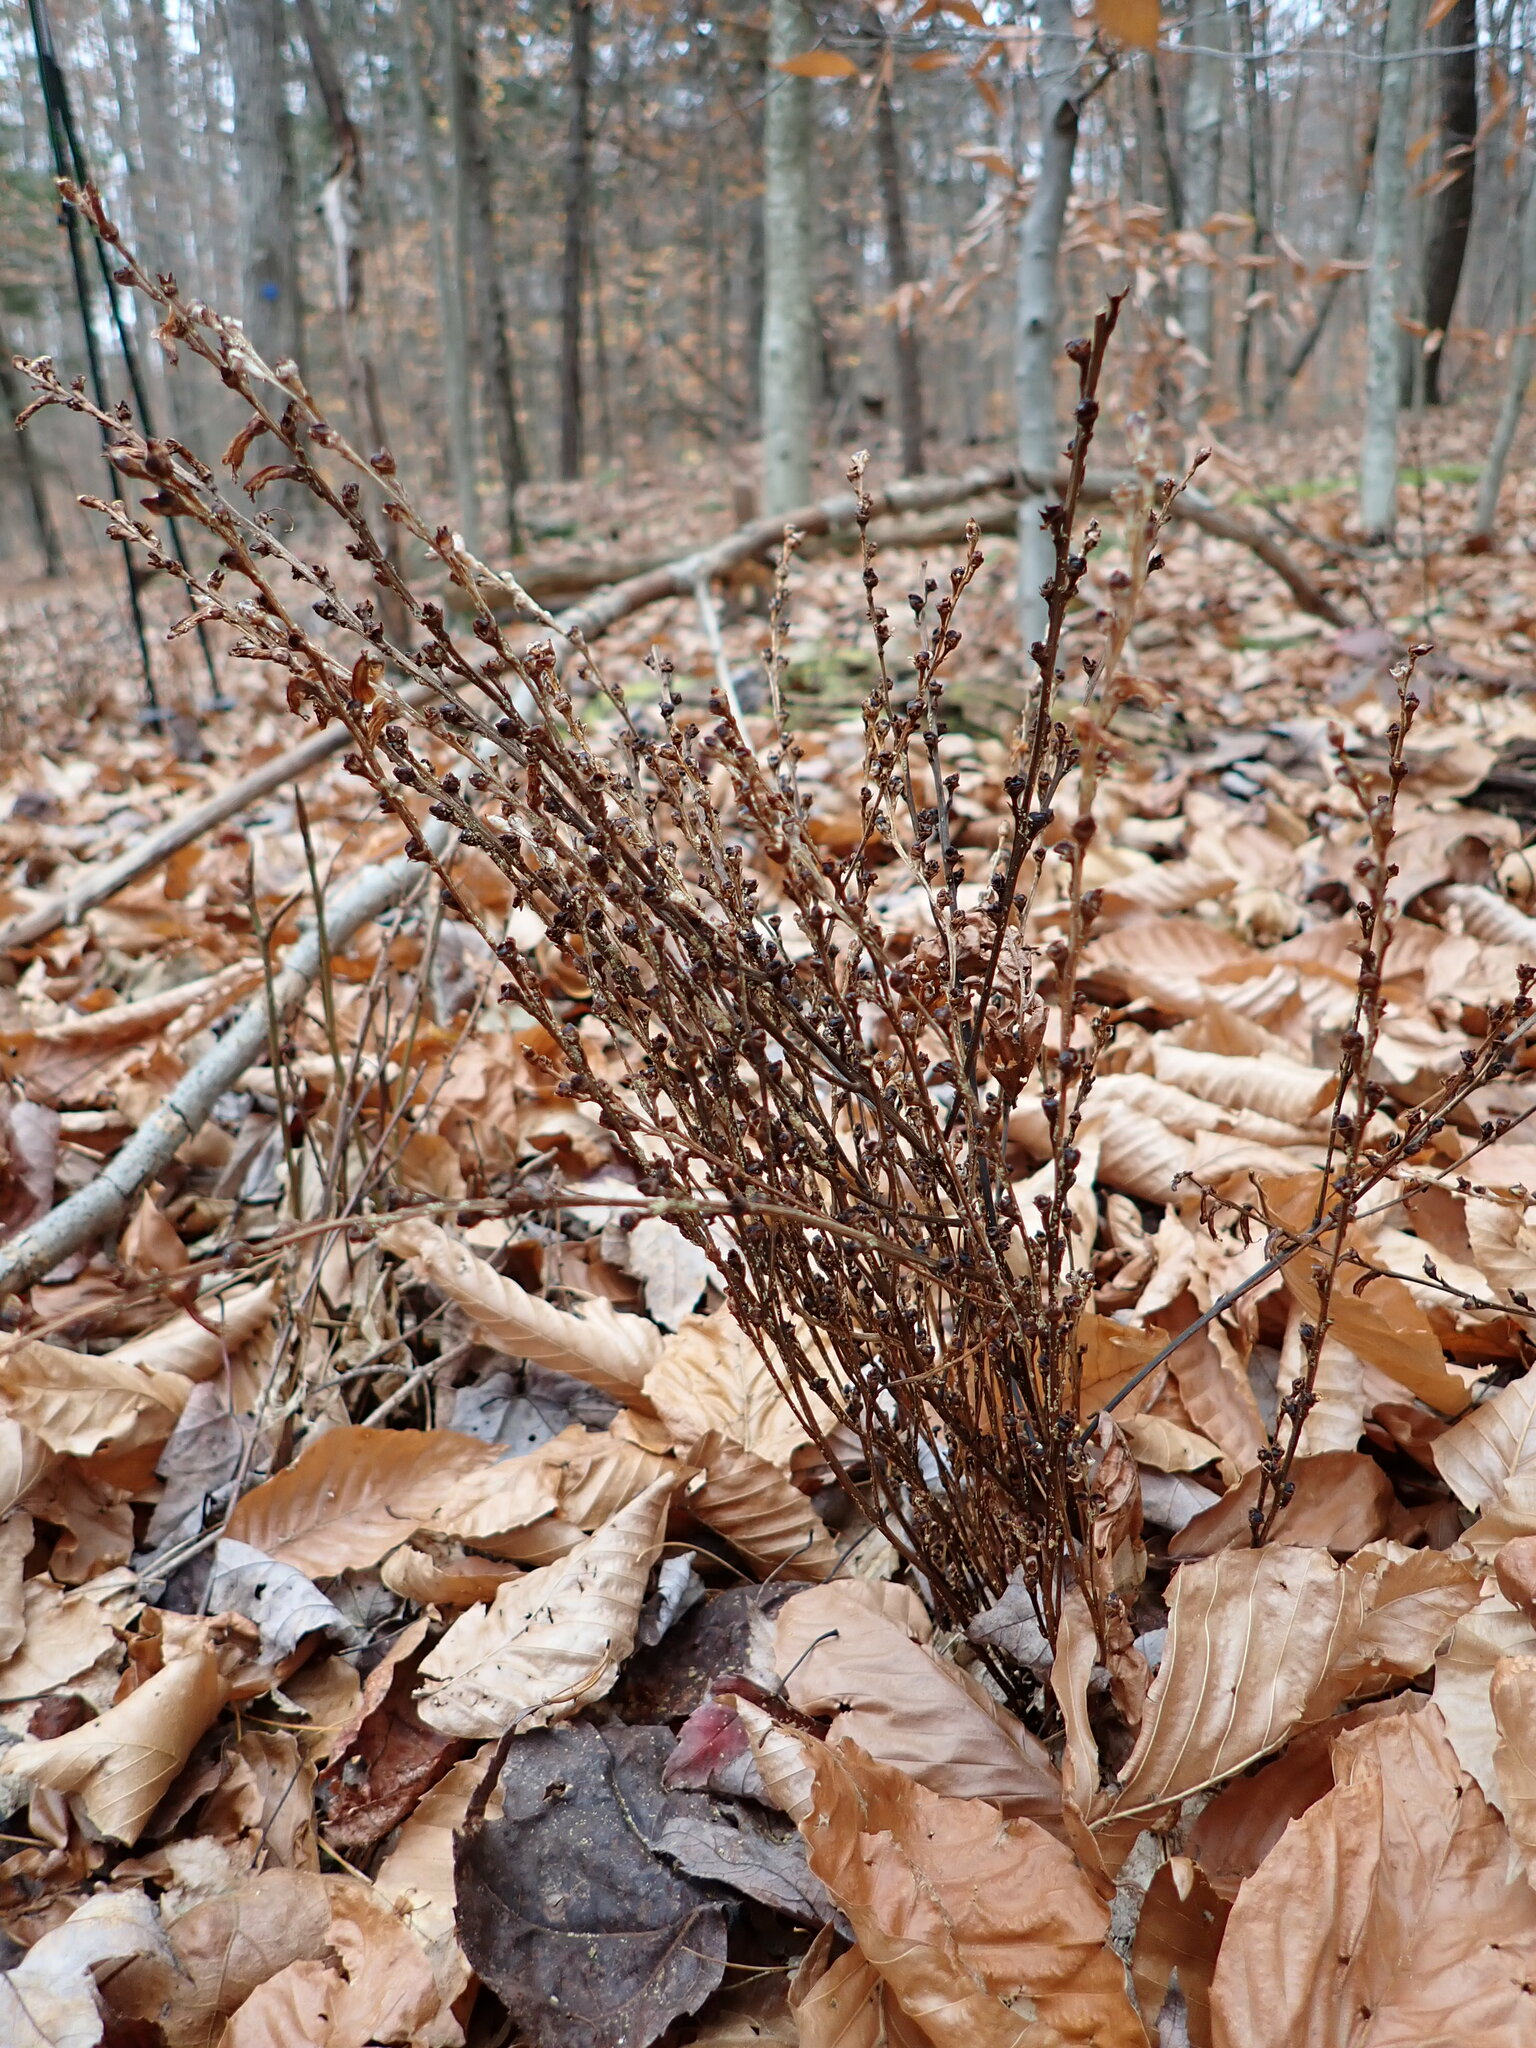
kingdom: Plantae
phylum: Tracheophyta
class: Magnoliopsida
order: Lamiales
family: Orobanchaceae
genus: Epifagus
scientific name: Epifagus virginiana
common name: Beechdrops
